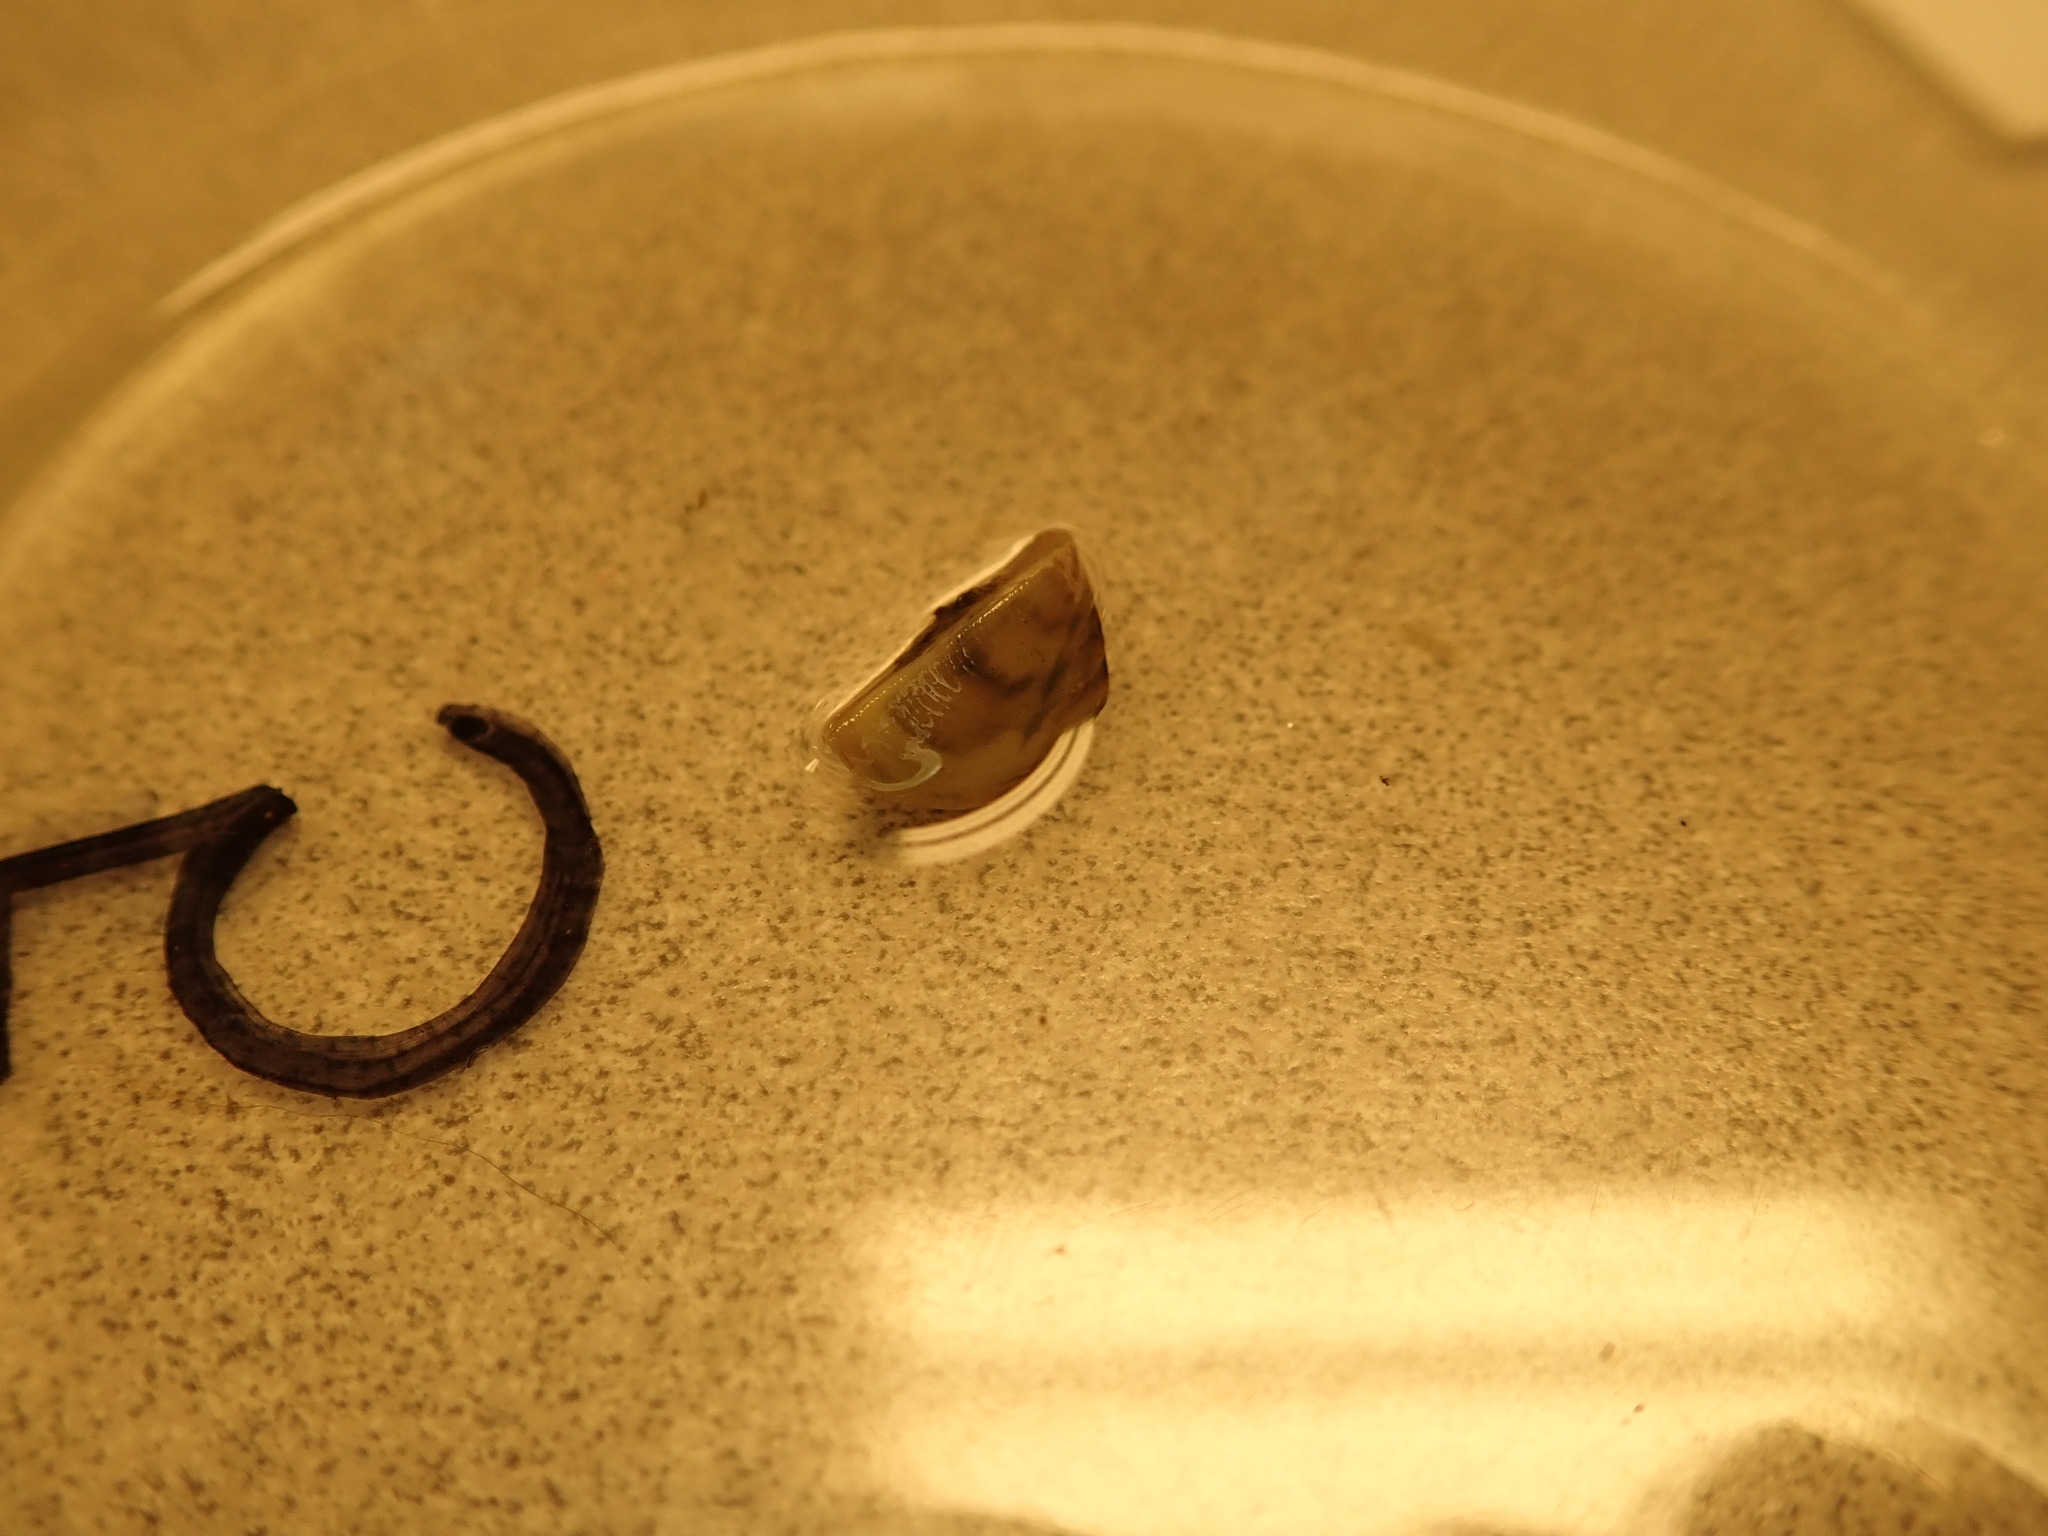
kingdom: Animalia
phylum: Mollusca
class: Bivalvia
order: Myida
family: Dreissenidae
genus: Dreissena
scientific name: Dreissena polymorpha
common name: Zebra mussel
